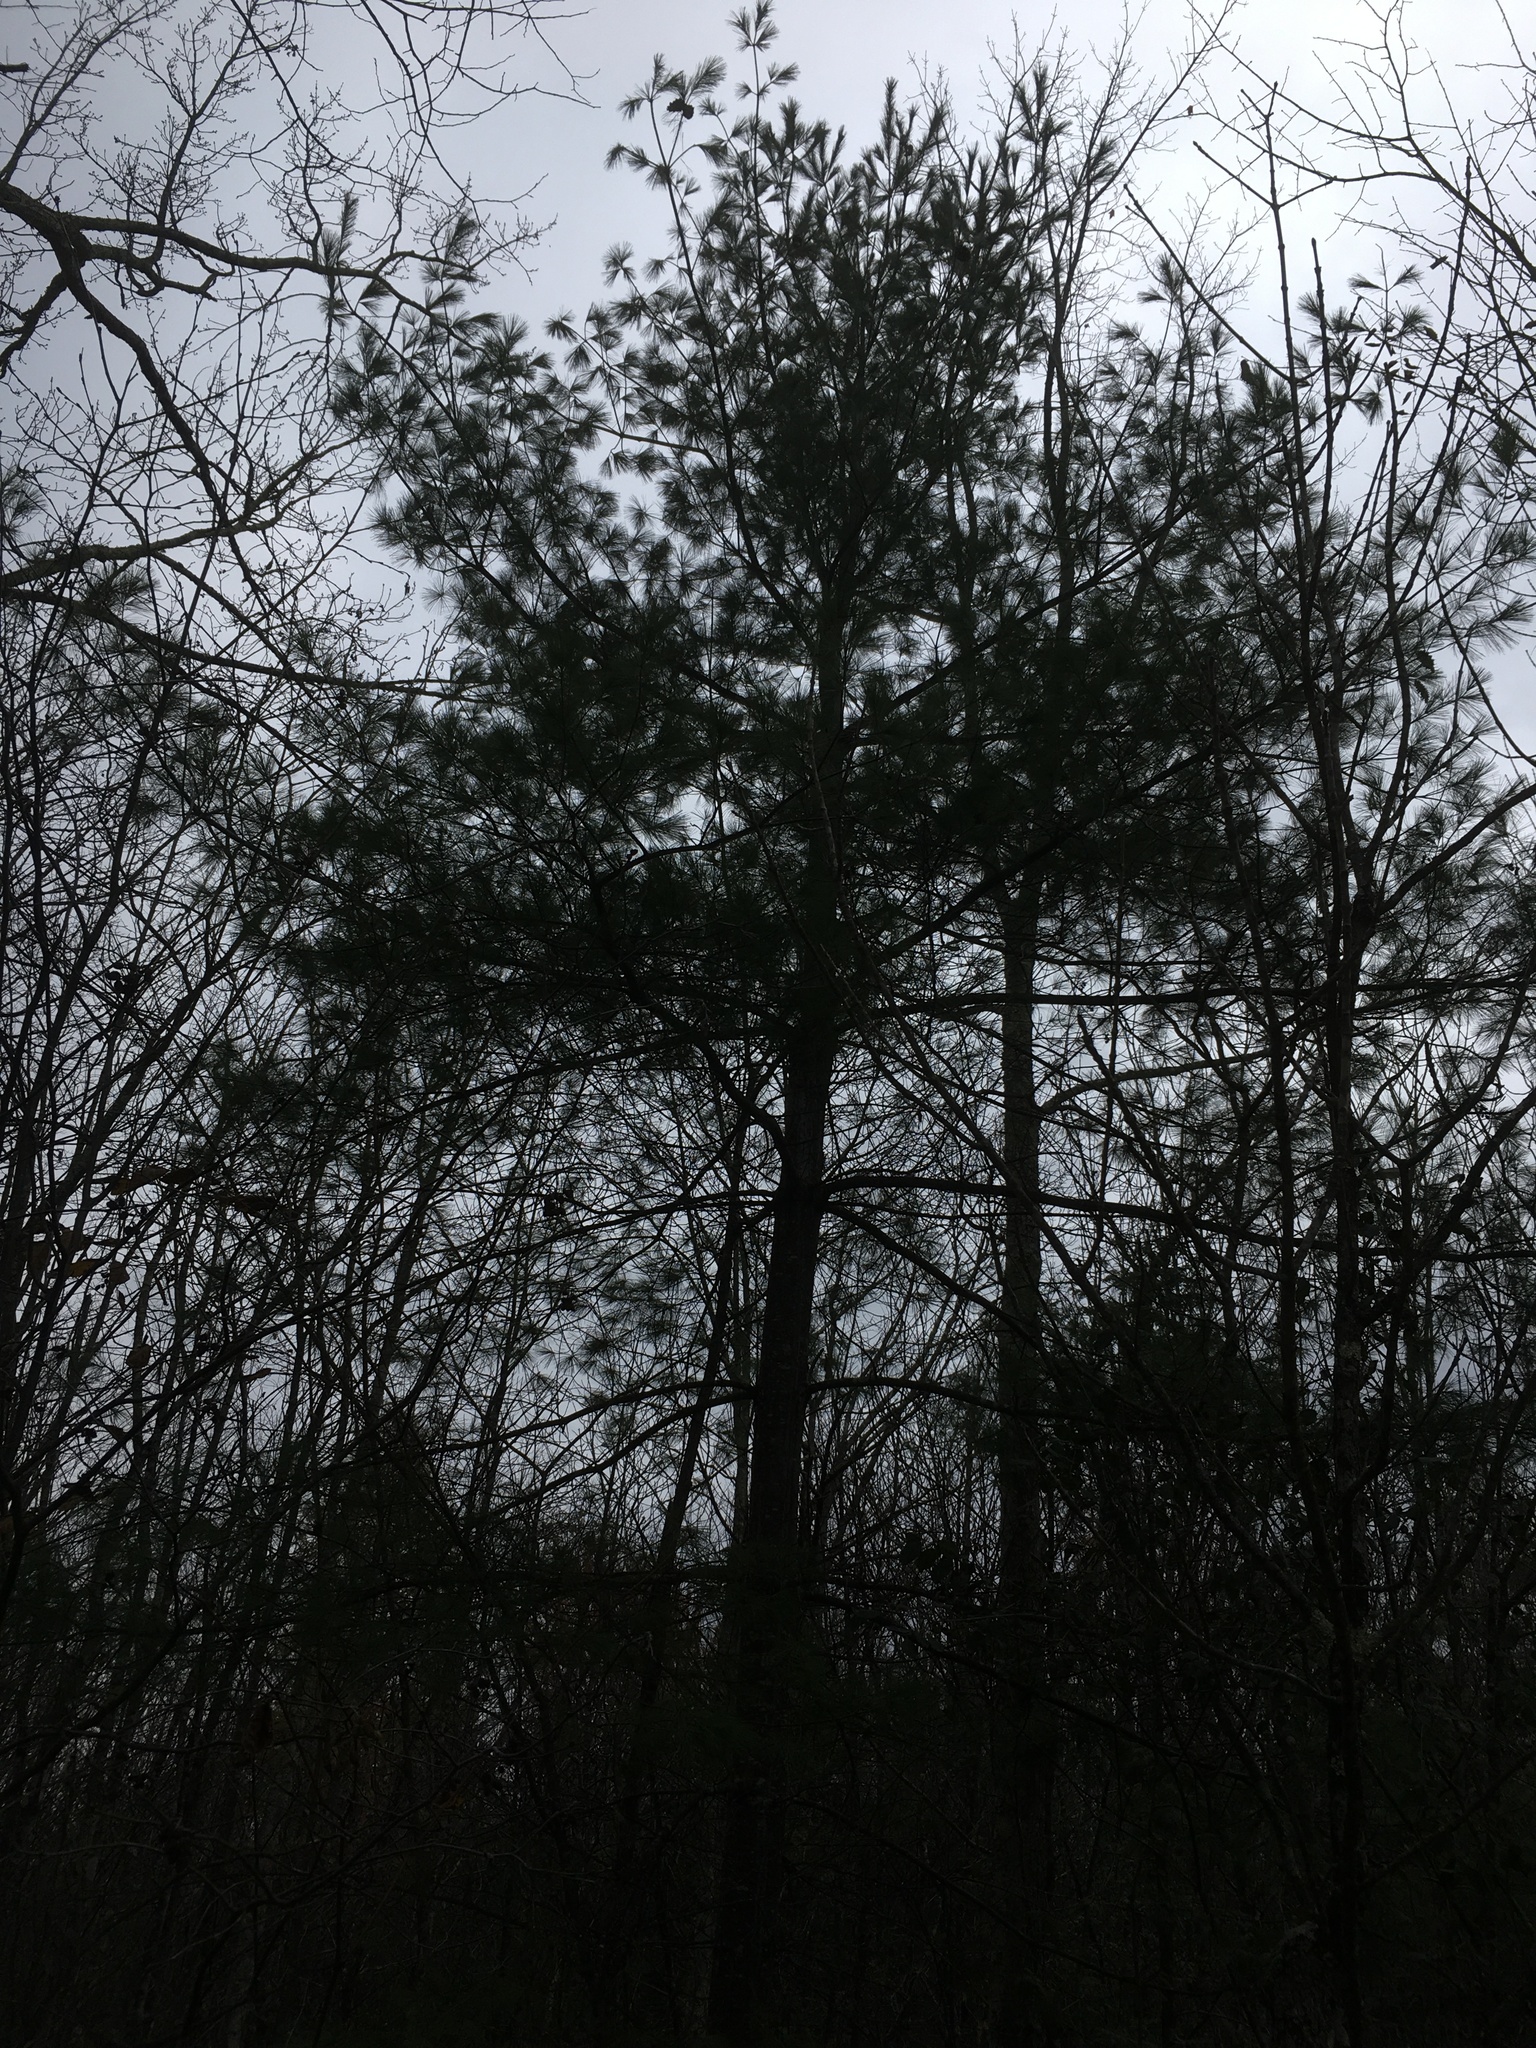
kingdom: Plantae
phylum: Tracheophyta
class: Pinopsida
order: Pinales
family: Pinaceae
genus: Pinus
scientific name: Pinus strobus
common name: Weymouth pine
